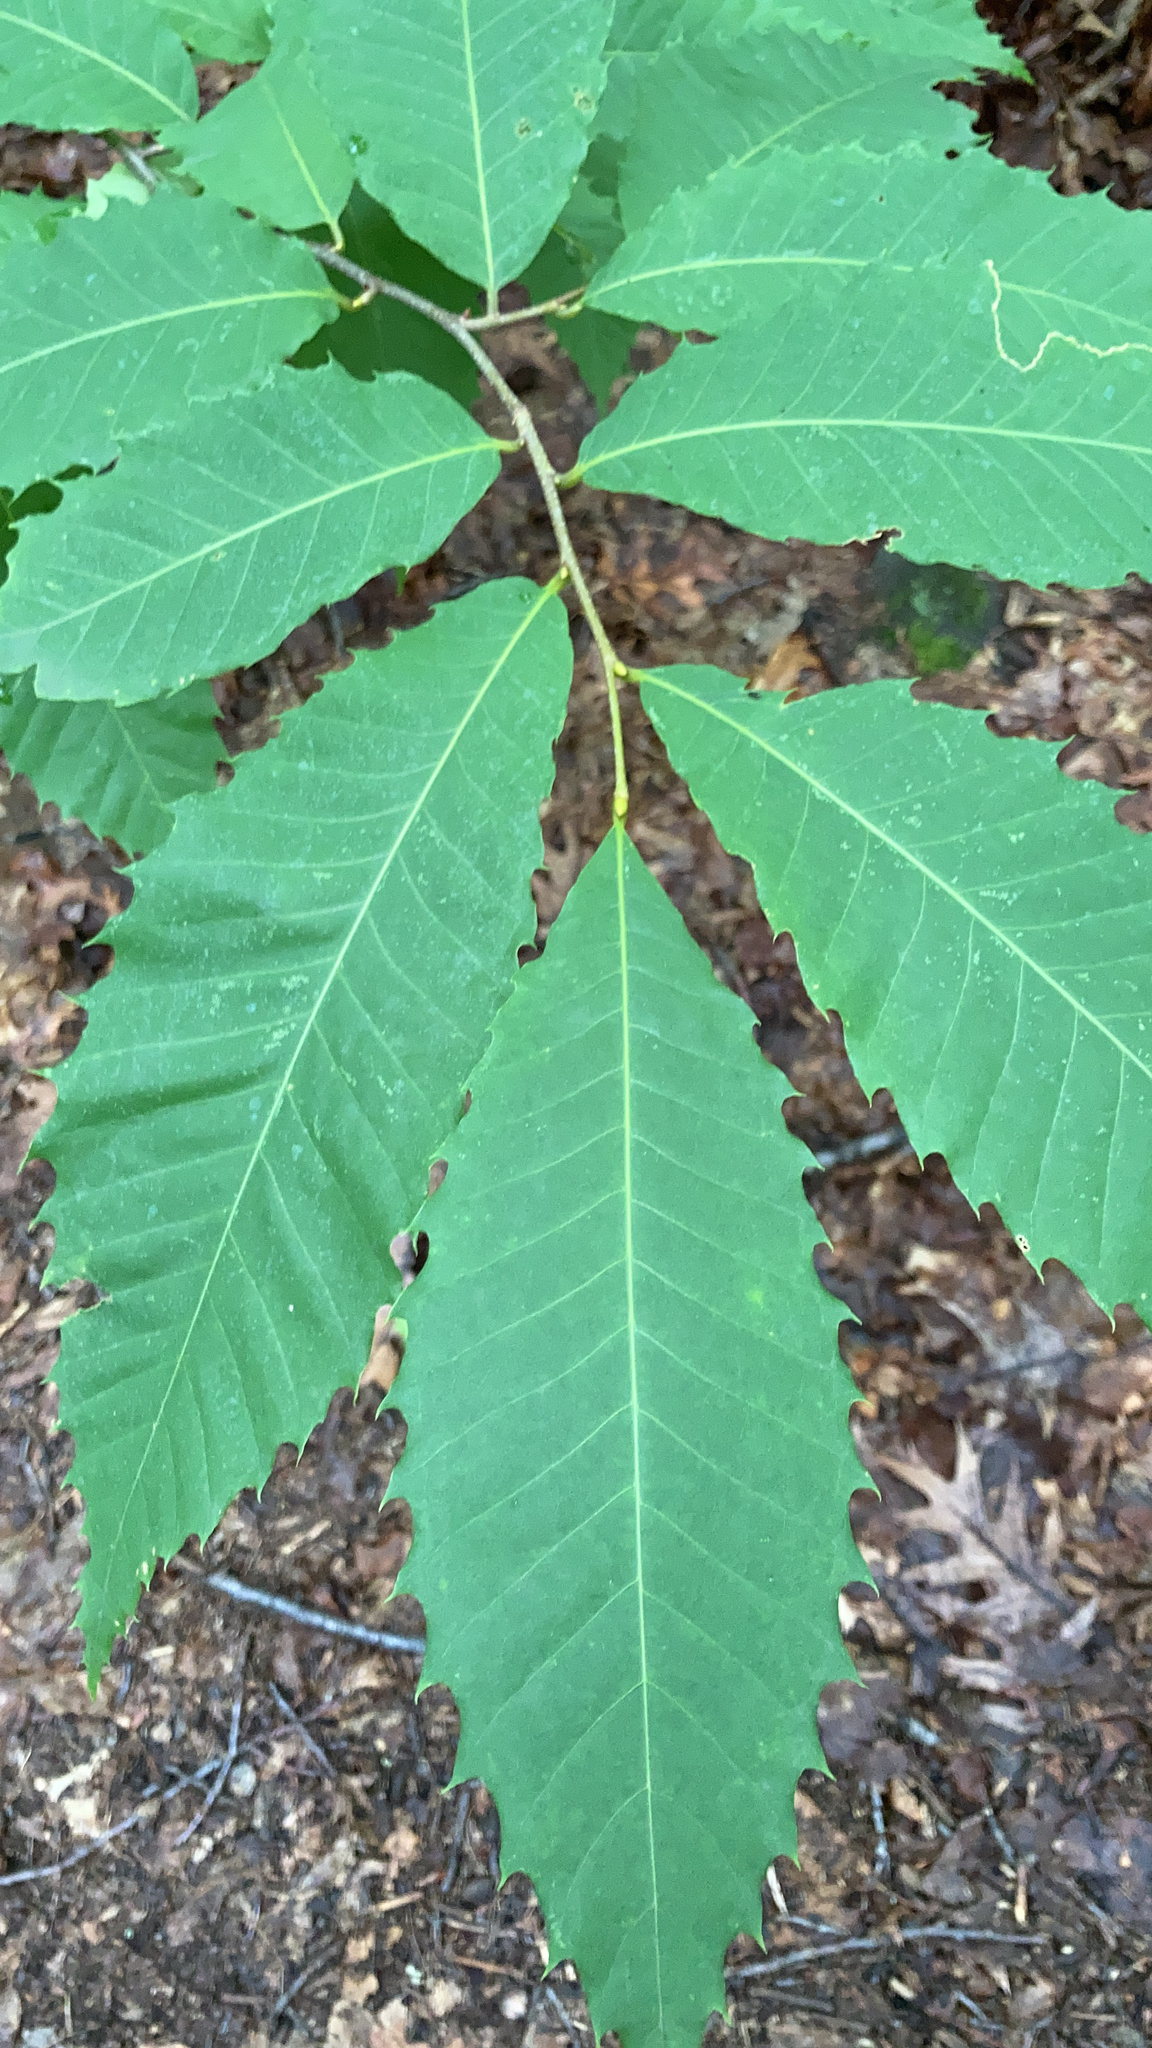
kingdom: Plantae
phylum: Tracheophyta
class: Magnoliopsida
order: Fagales
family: Fagaceae
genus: Castanea
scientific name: Castanea dentata
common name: American chestnut
